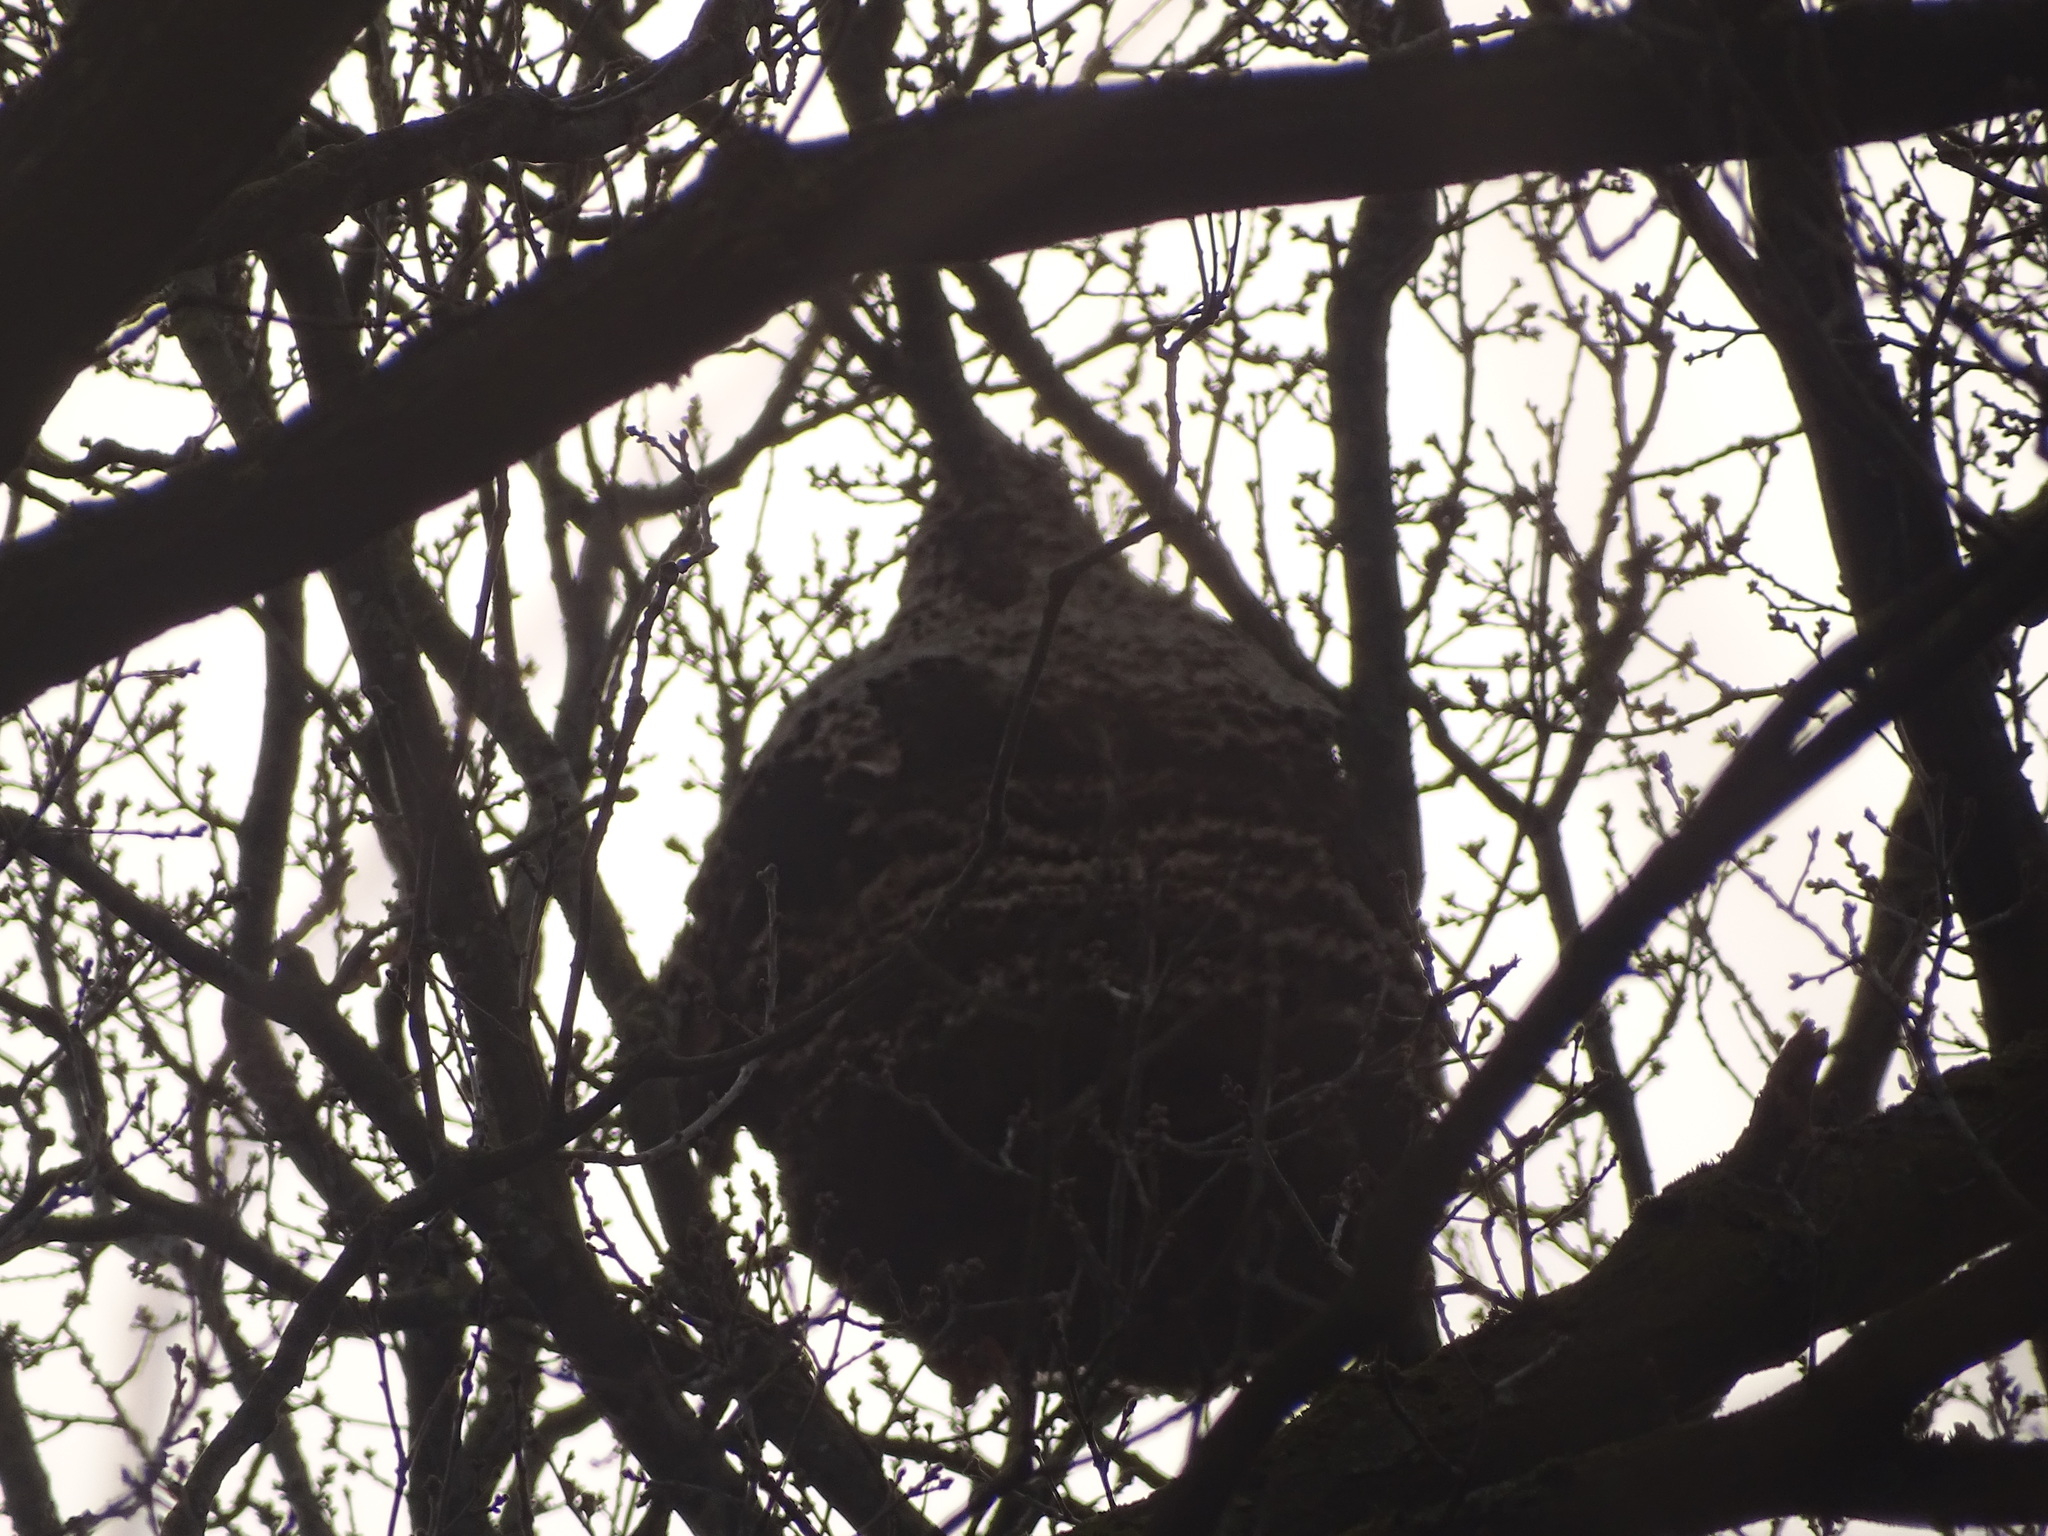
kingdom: Animalia
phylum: Arthropoda
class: Insecta
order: Hymenoptera
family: Vespidae
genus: Vespa
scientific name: Vespa velutina
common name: Asian hornet
